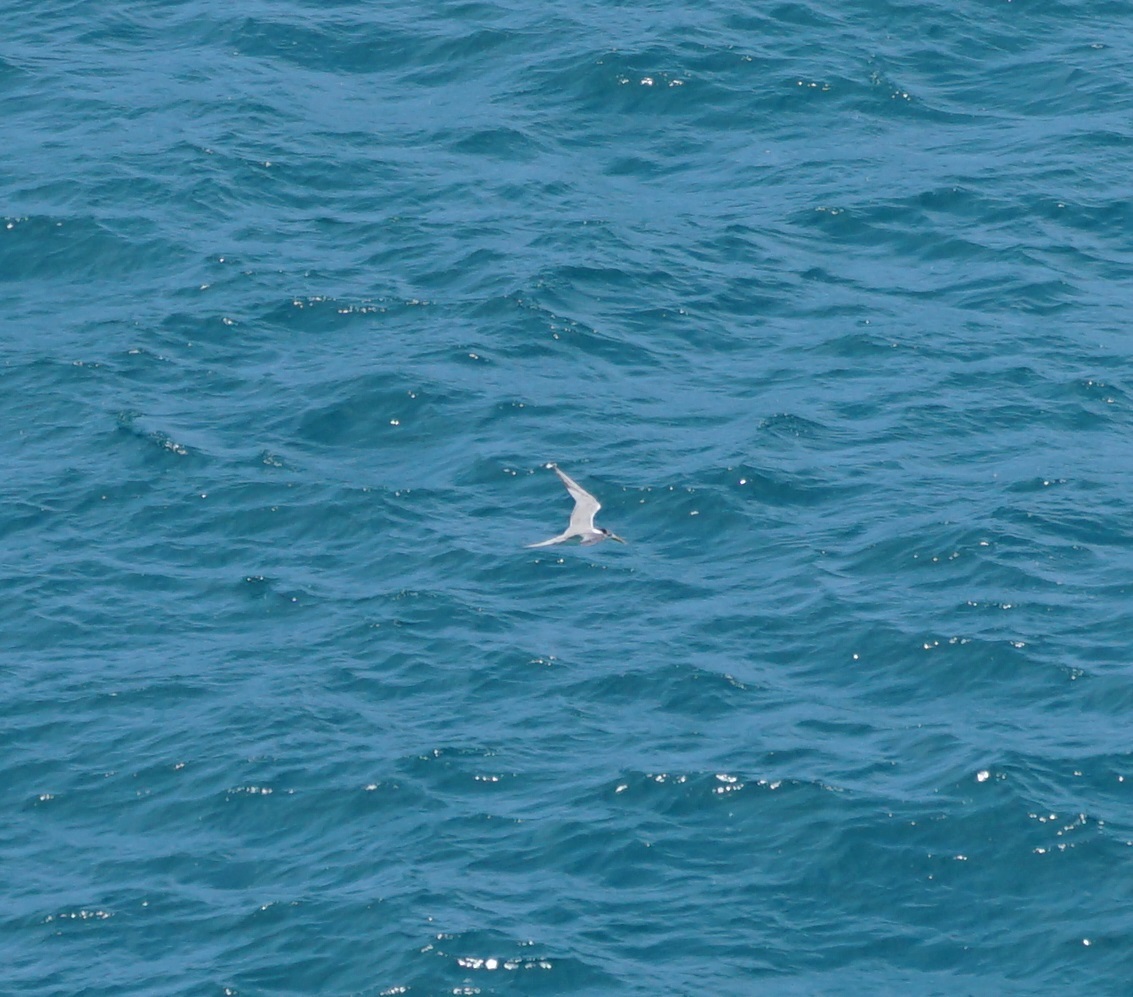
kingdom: Animalia
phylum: Chordata
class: Aves
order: Charadriiformes
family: Laridae
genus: Thalasseus
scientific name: Thalasseus bergii
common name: Greater crested tern
